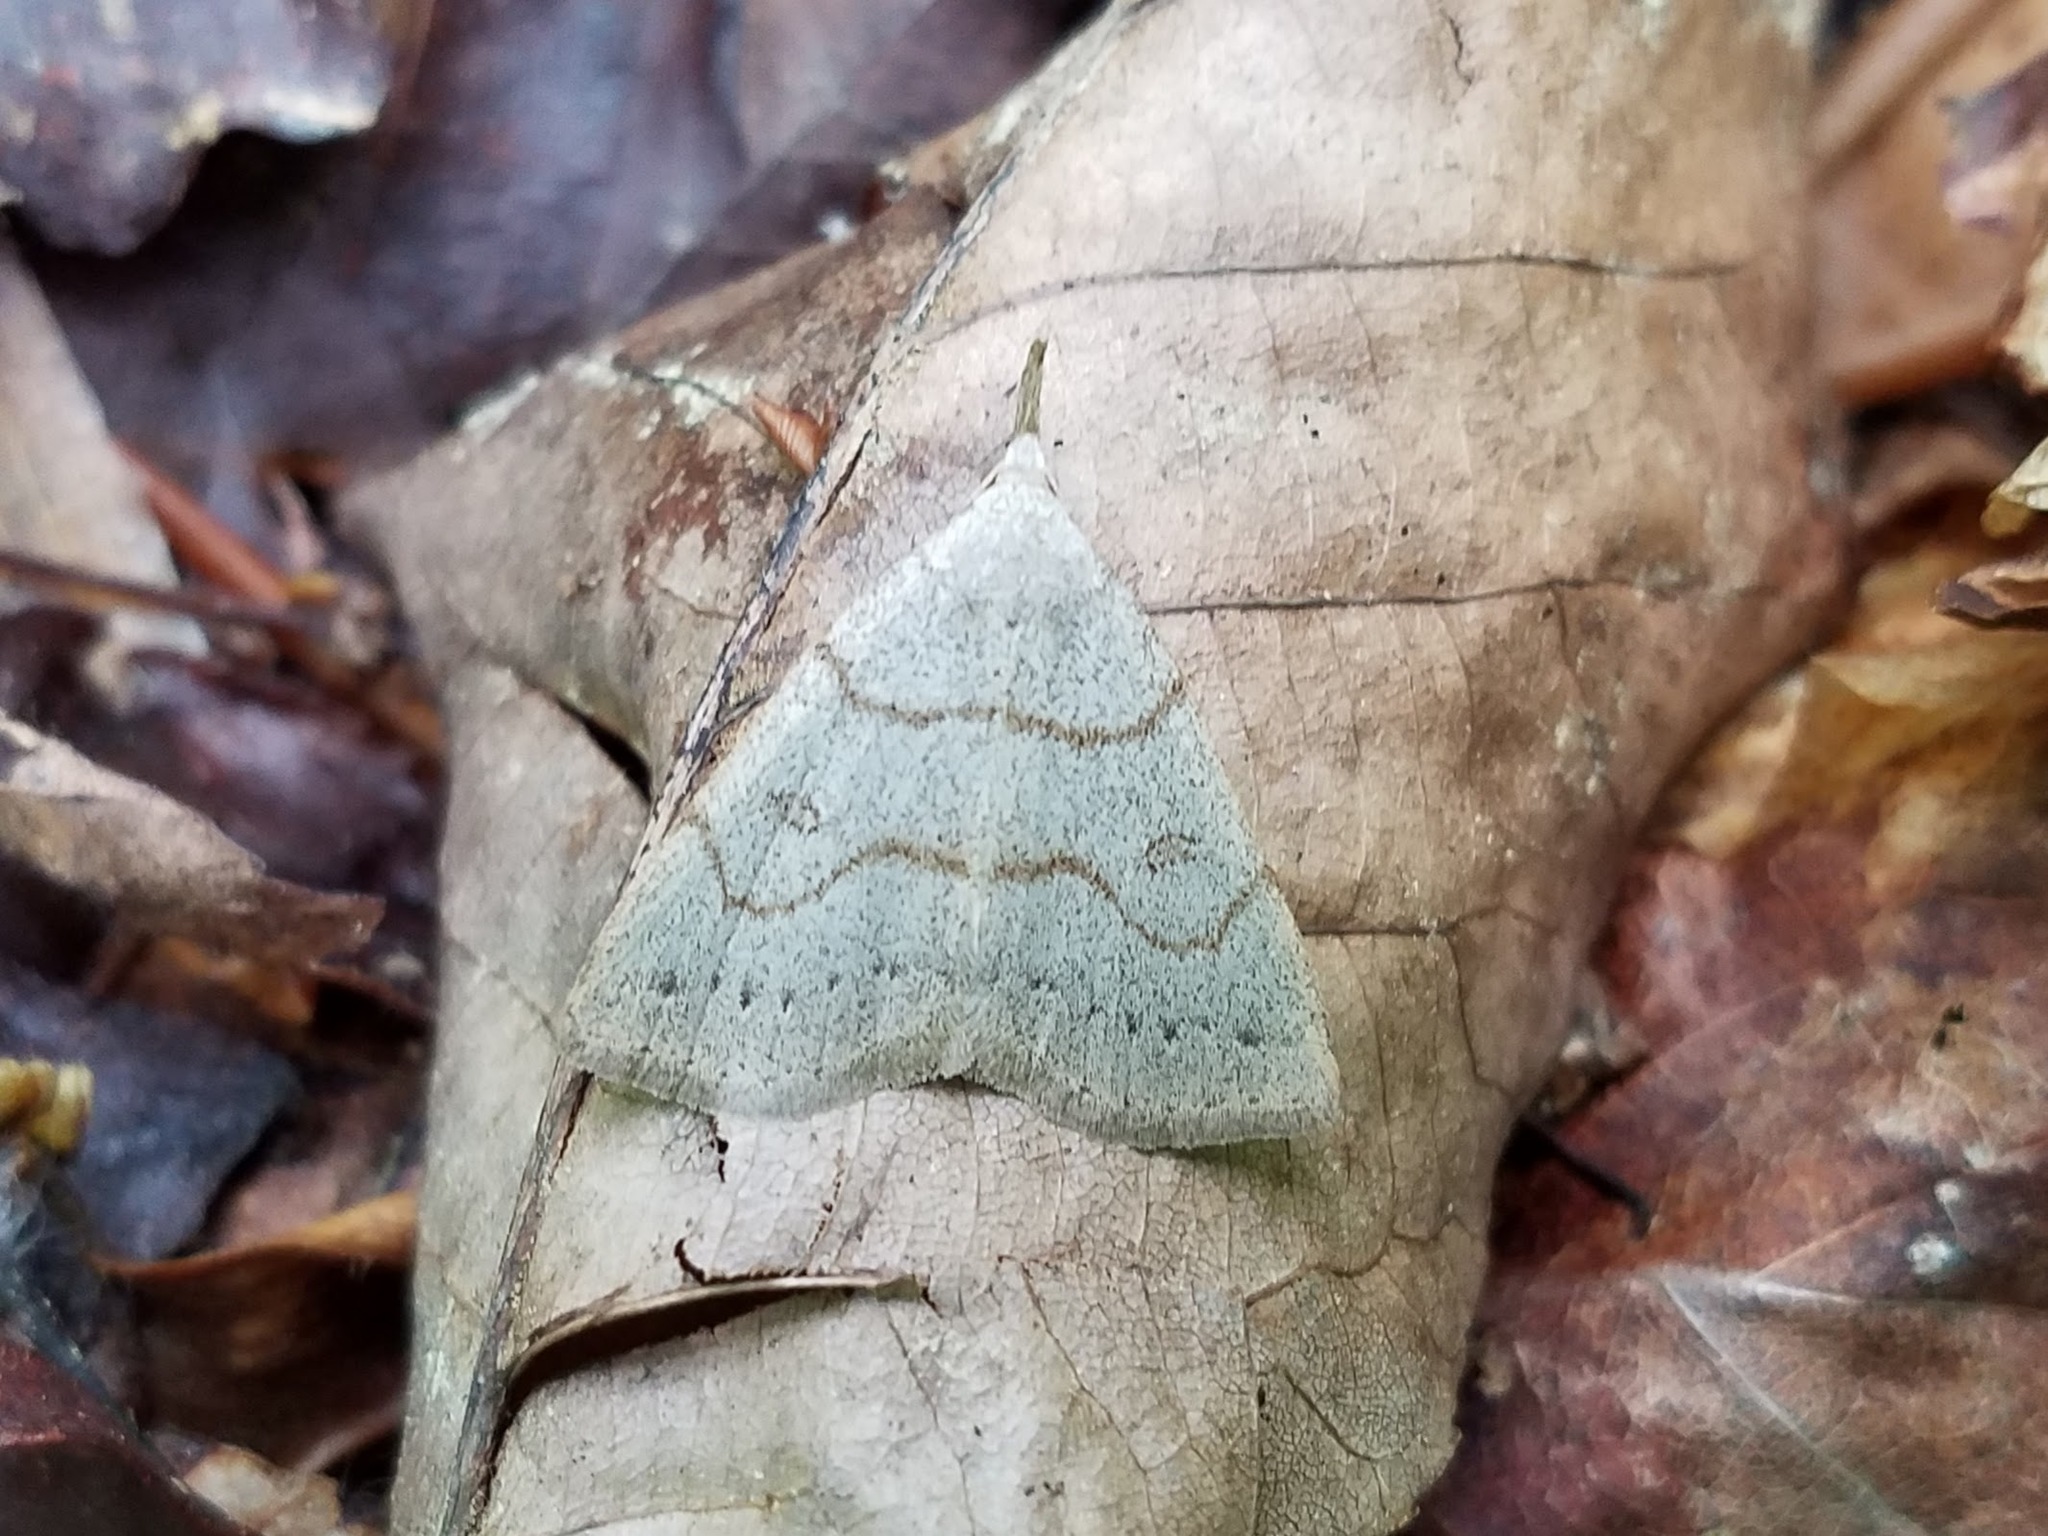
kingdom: Animalia
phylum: Arthropoda
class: Insecta
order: Lepidoptera
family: Erebidae
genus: Macrochilo
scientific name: Macrochilo morbidalis
